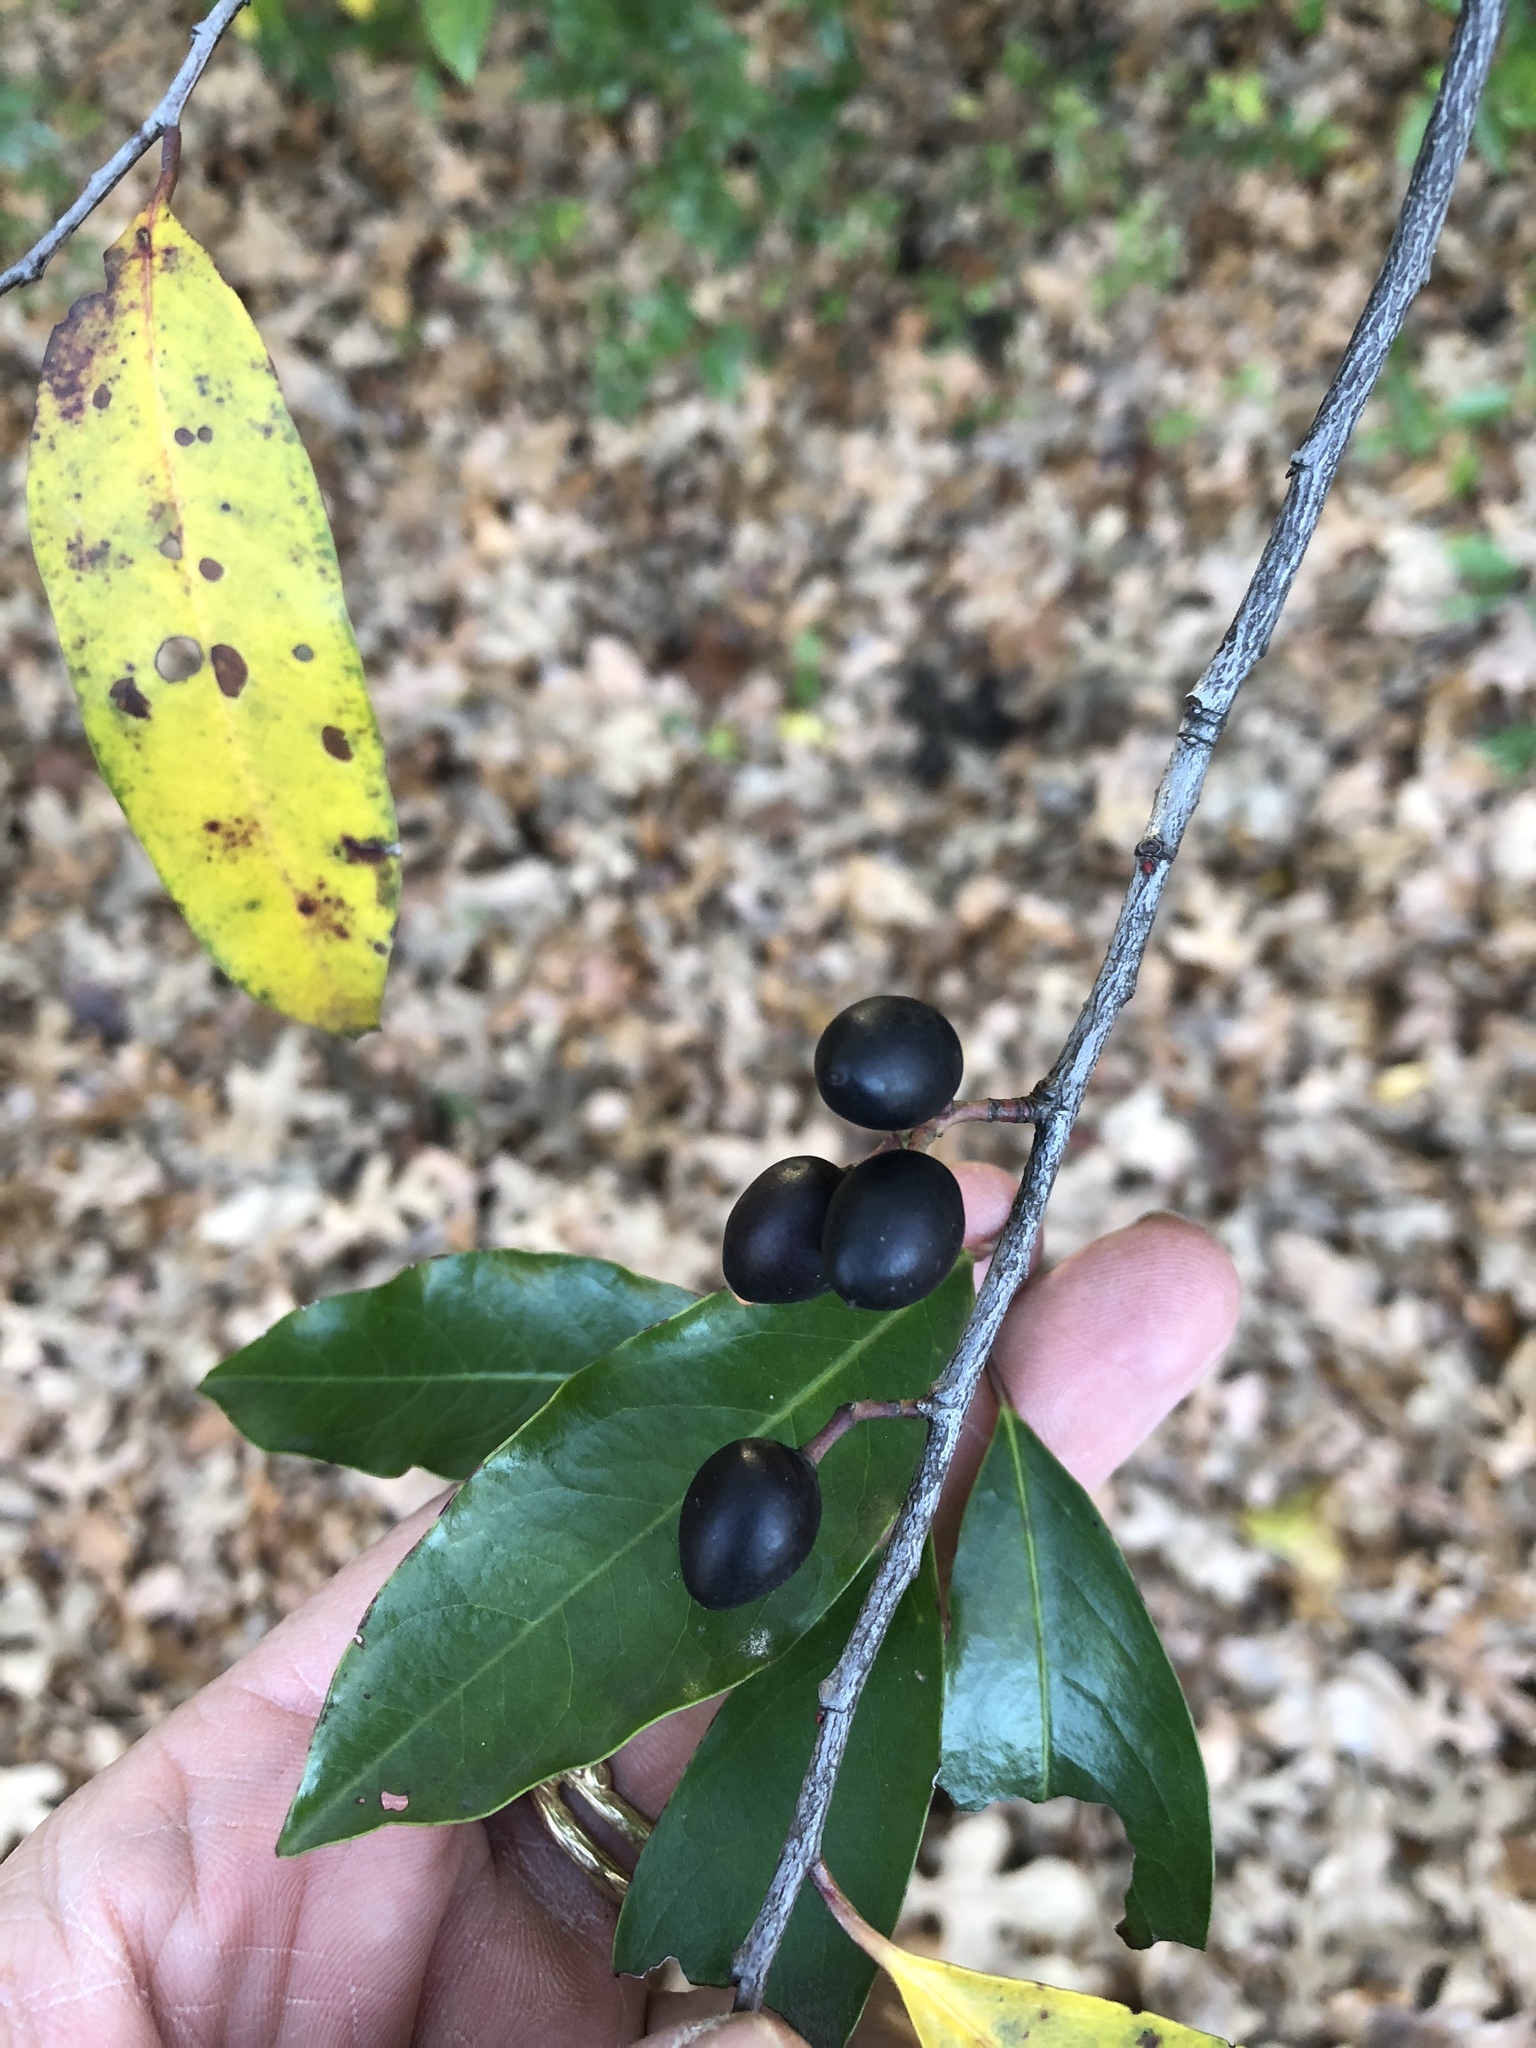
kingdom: Plantae
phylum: Tracheophyta
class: Magnoliopsida
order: Rosales
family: Rosaceae
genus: Prunus
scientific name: Prunus caroliniana
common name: Carolina laurel cherry
